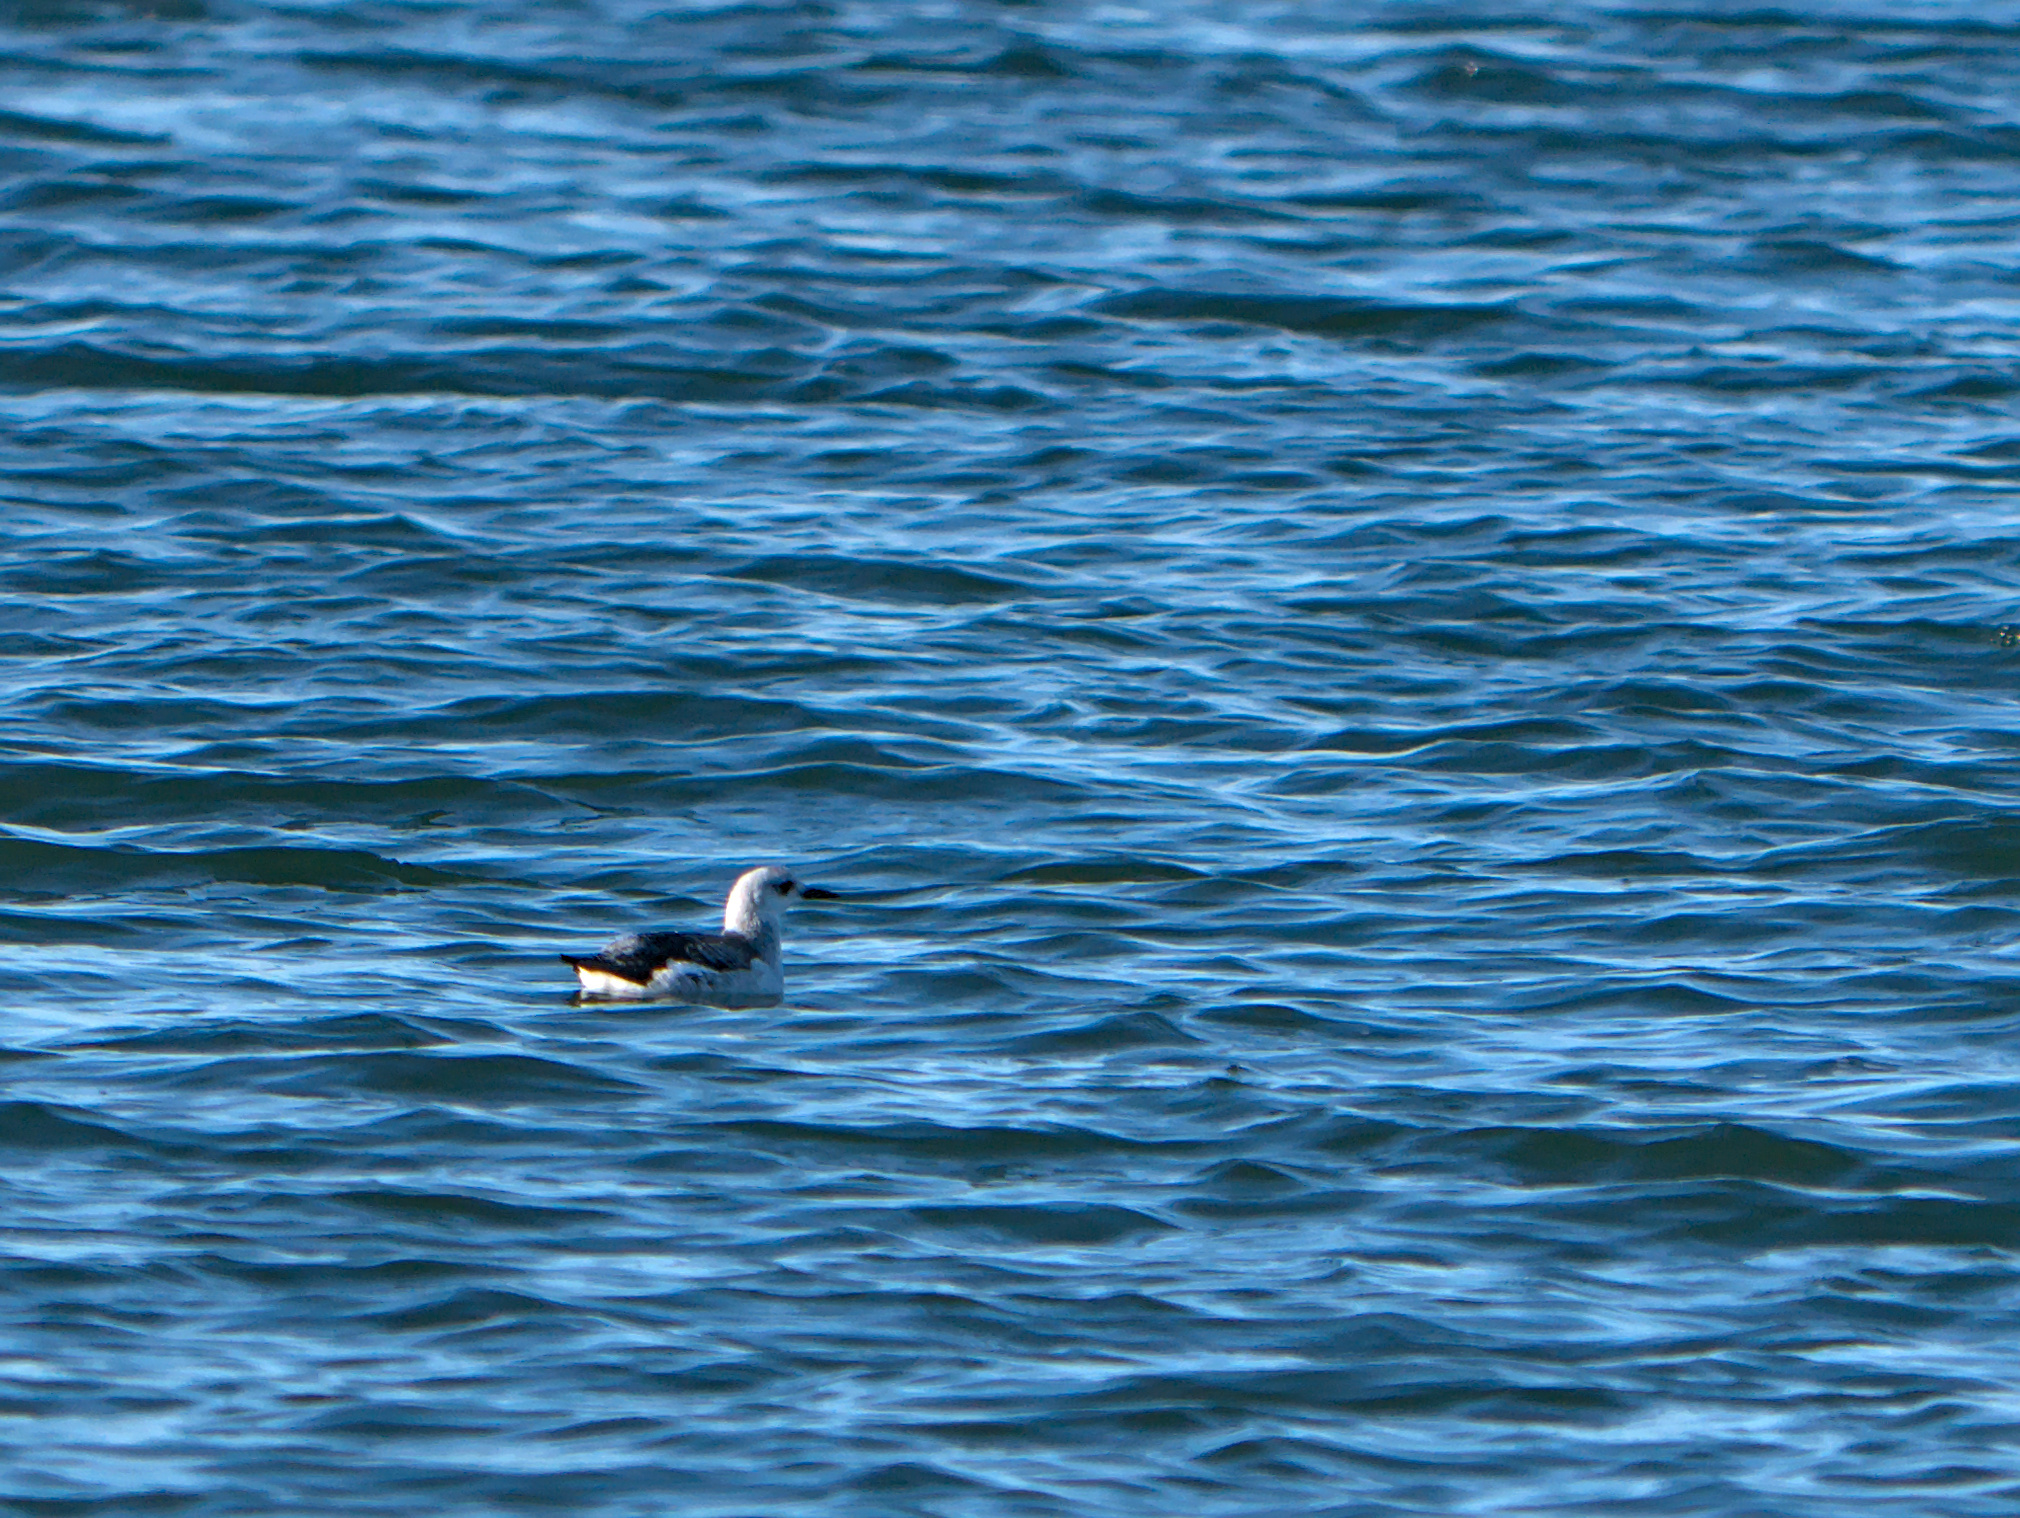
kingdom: Animalia
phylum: Chordata
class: Aves
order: Charadriiformes
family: Alcidae
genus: Cepphus
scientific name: Cepphus grylle
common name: Black guillemot
